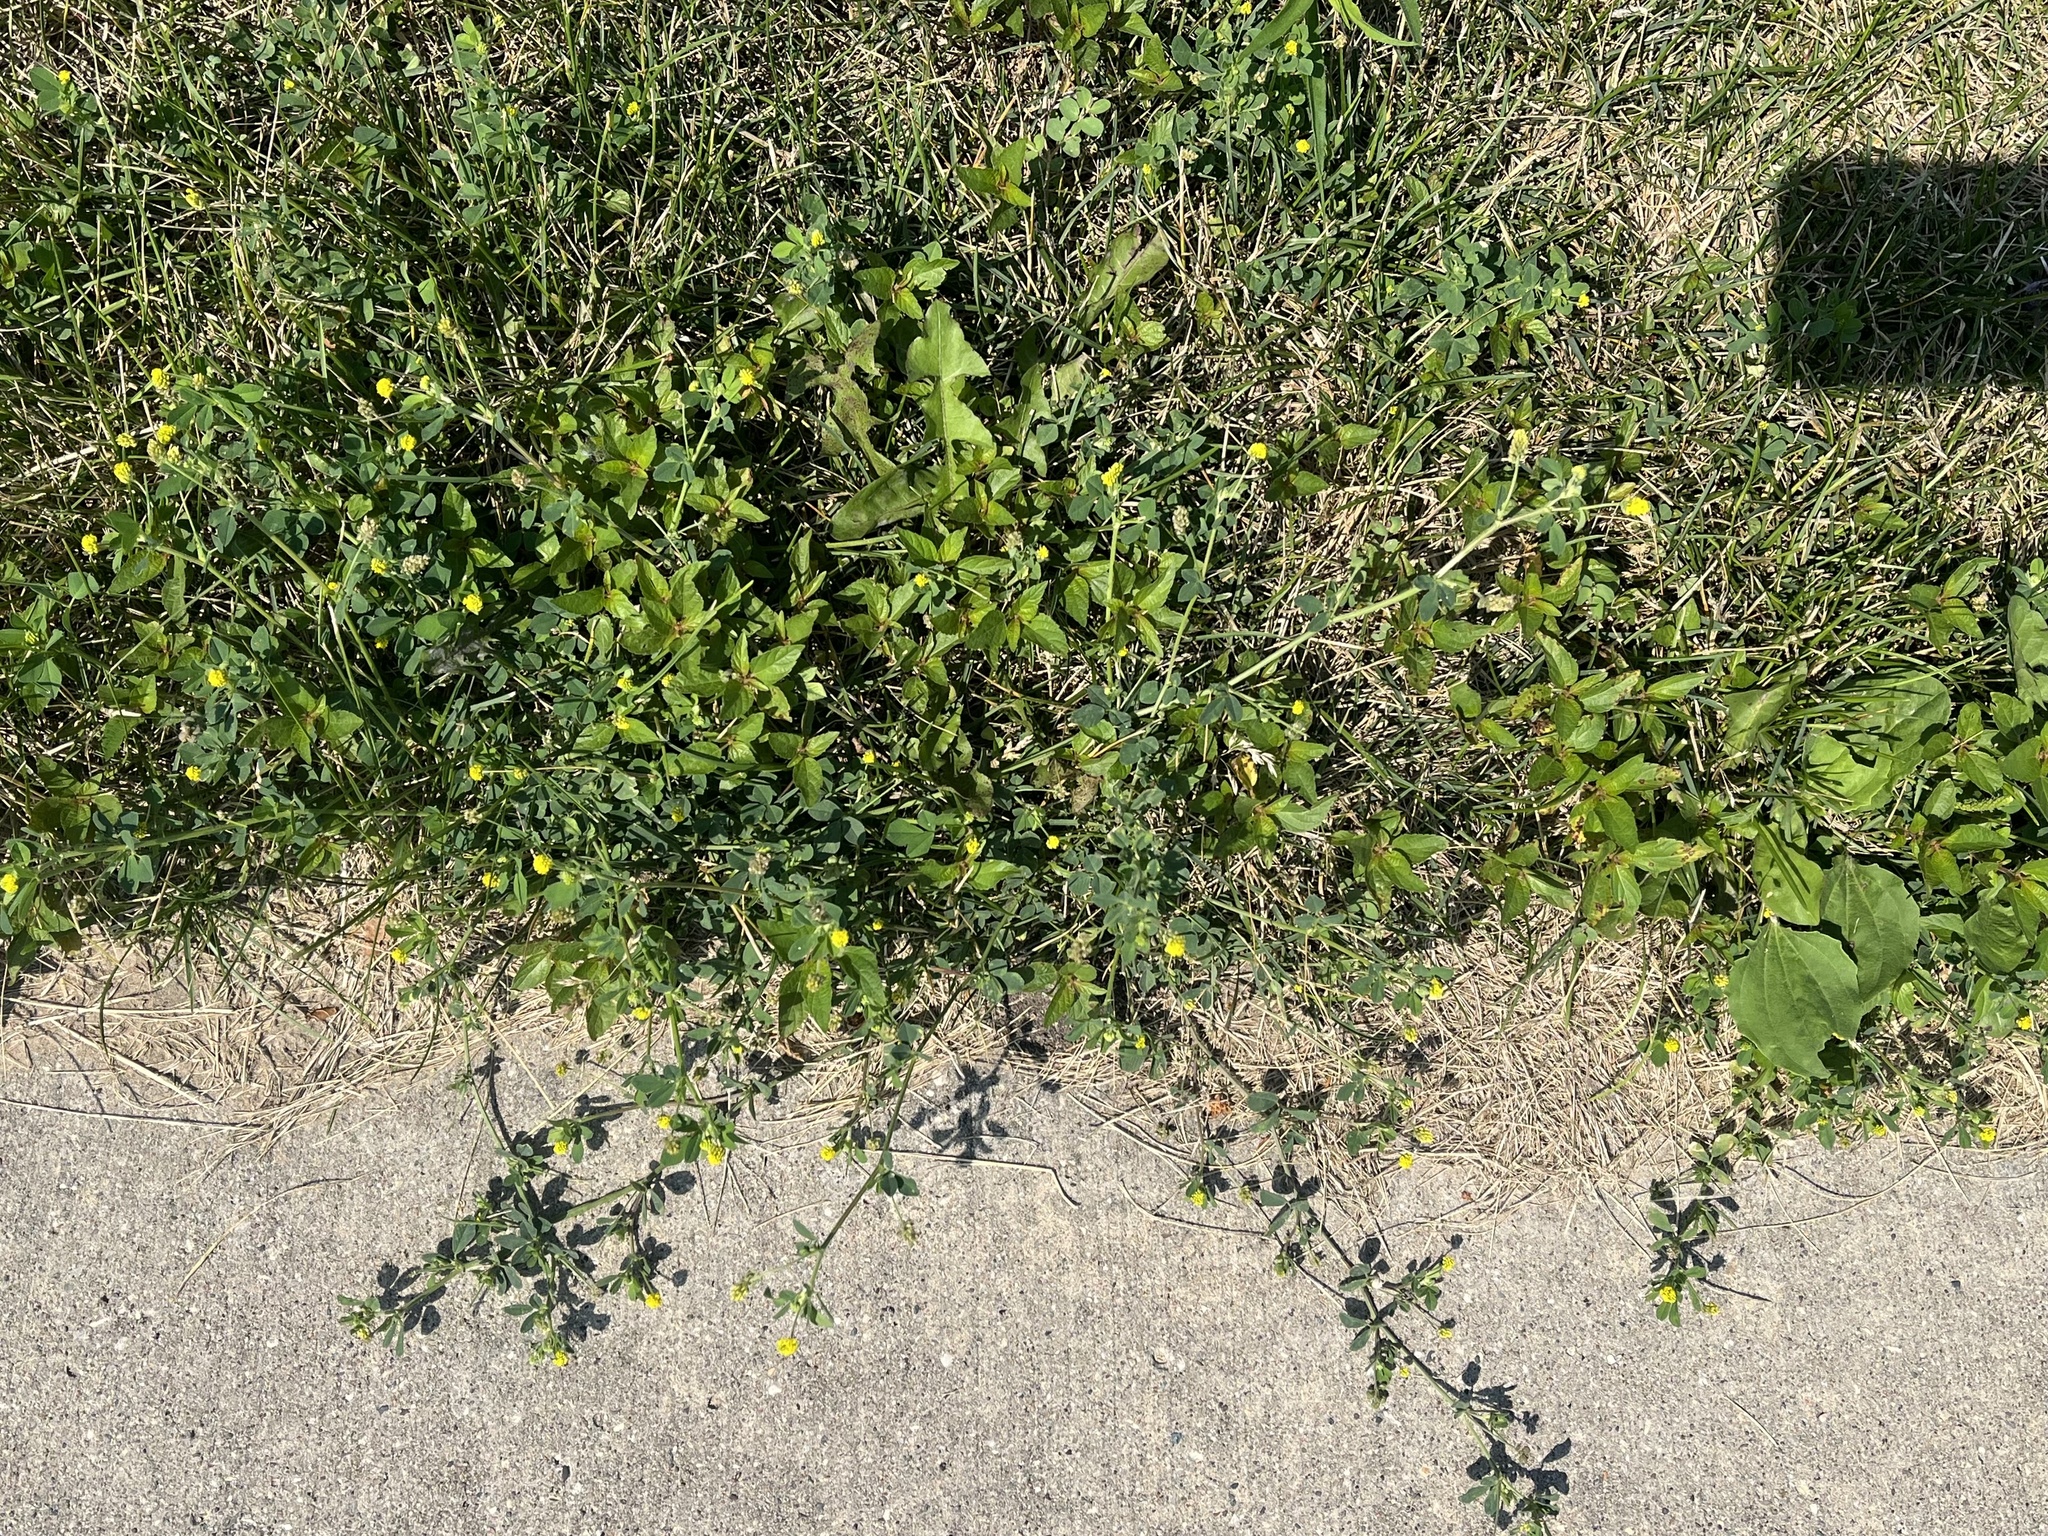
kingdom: Plantae
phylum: Tracheophyta
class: Magnoliopsida
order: Fabales
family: Fabaceae
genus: Medicago
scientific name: Medicago lupulina
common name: Black medick
